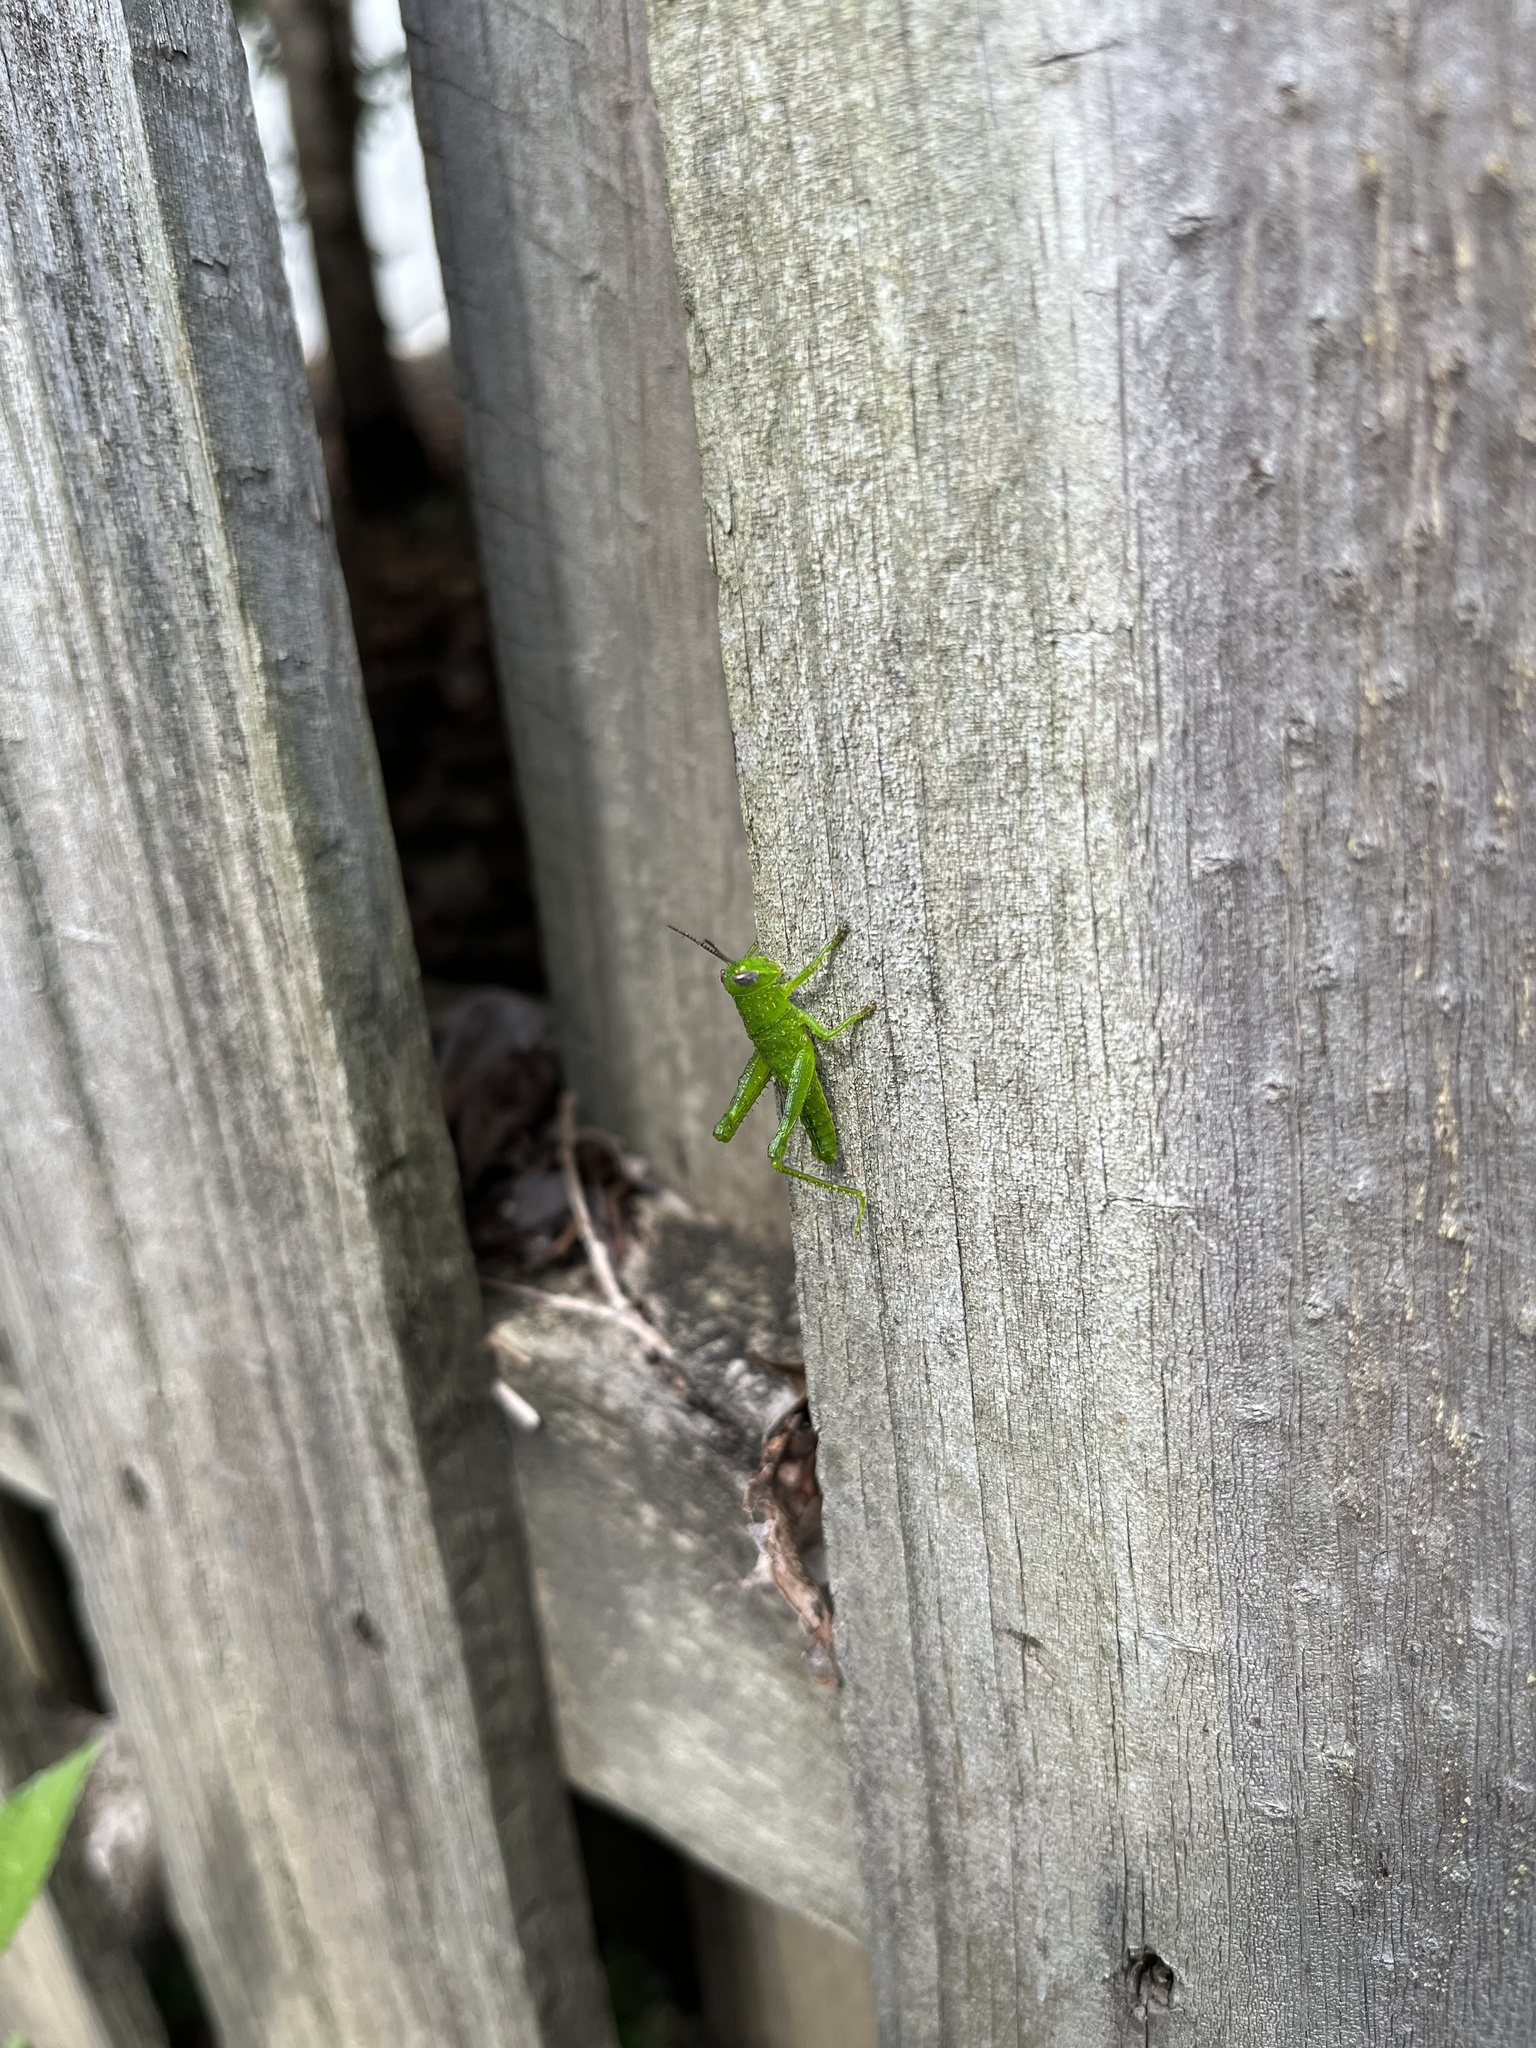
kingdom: Animalia
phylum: Arthropoda
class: Insecta
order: Orthoptera
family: Acrididae
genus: Valanga
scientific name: Valanga irregularis
